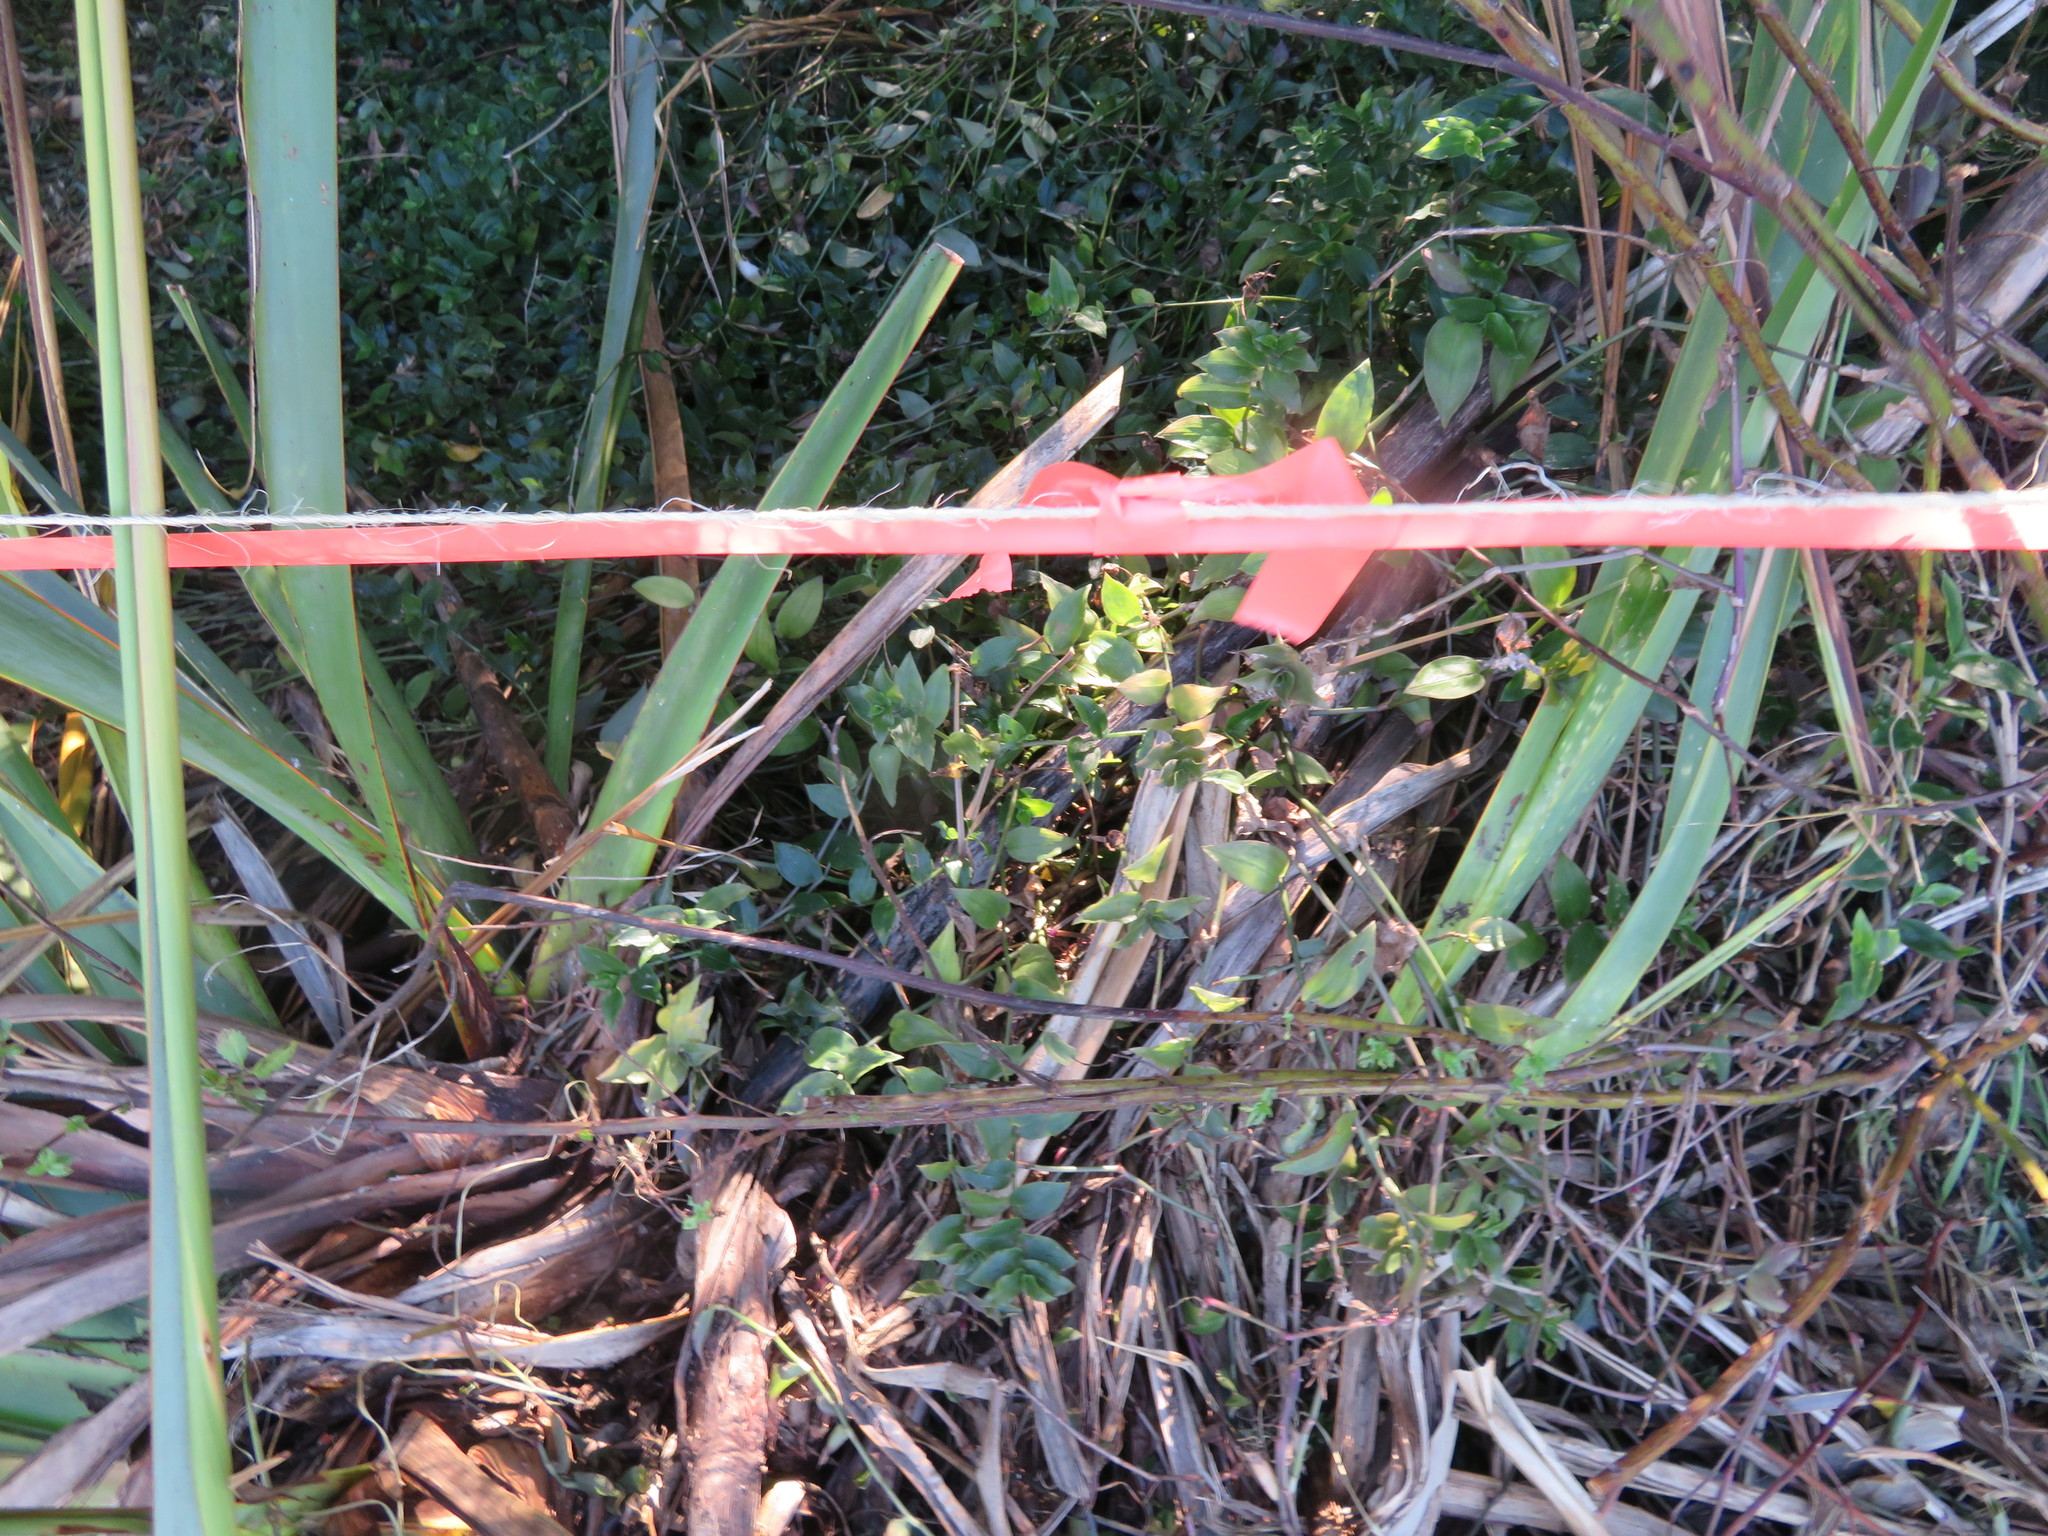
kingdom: Plantae
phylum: Tracheophyta
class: Liliopsida
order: Commelinales
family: Commelinaceae
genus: Tradescantia
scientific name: Tradescantia fluminensis
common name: Wandering-jew
